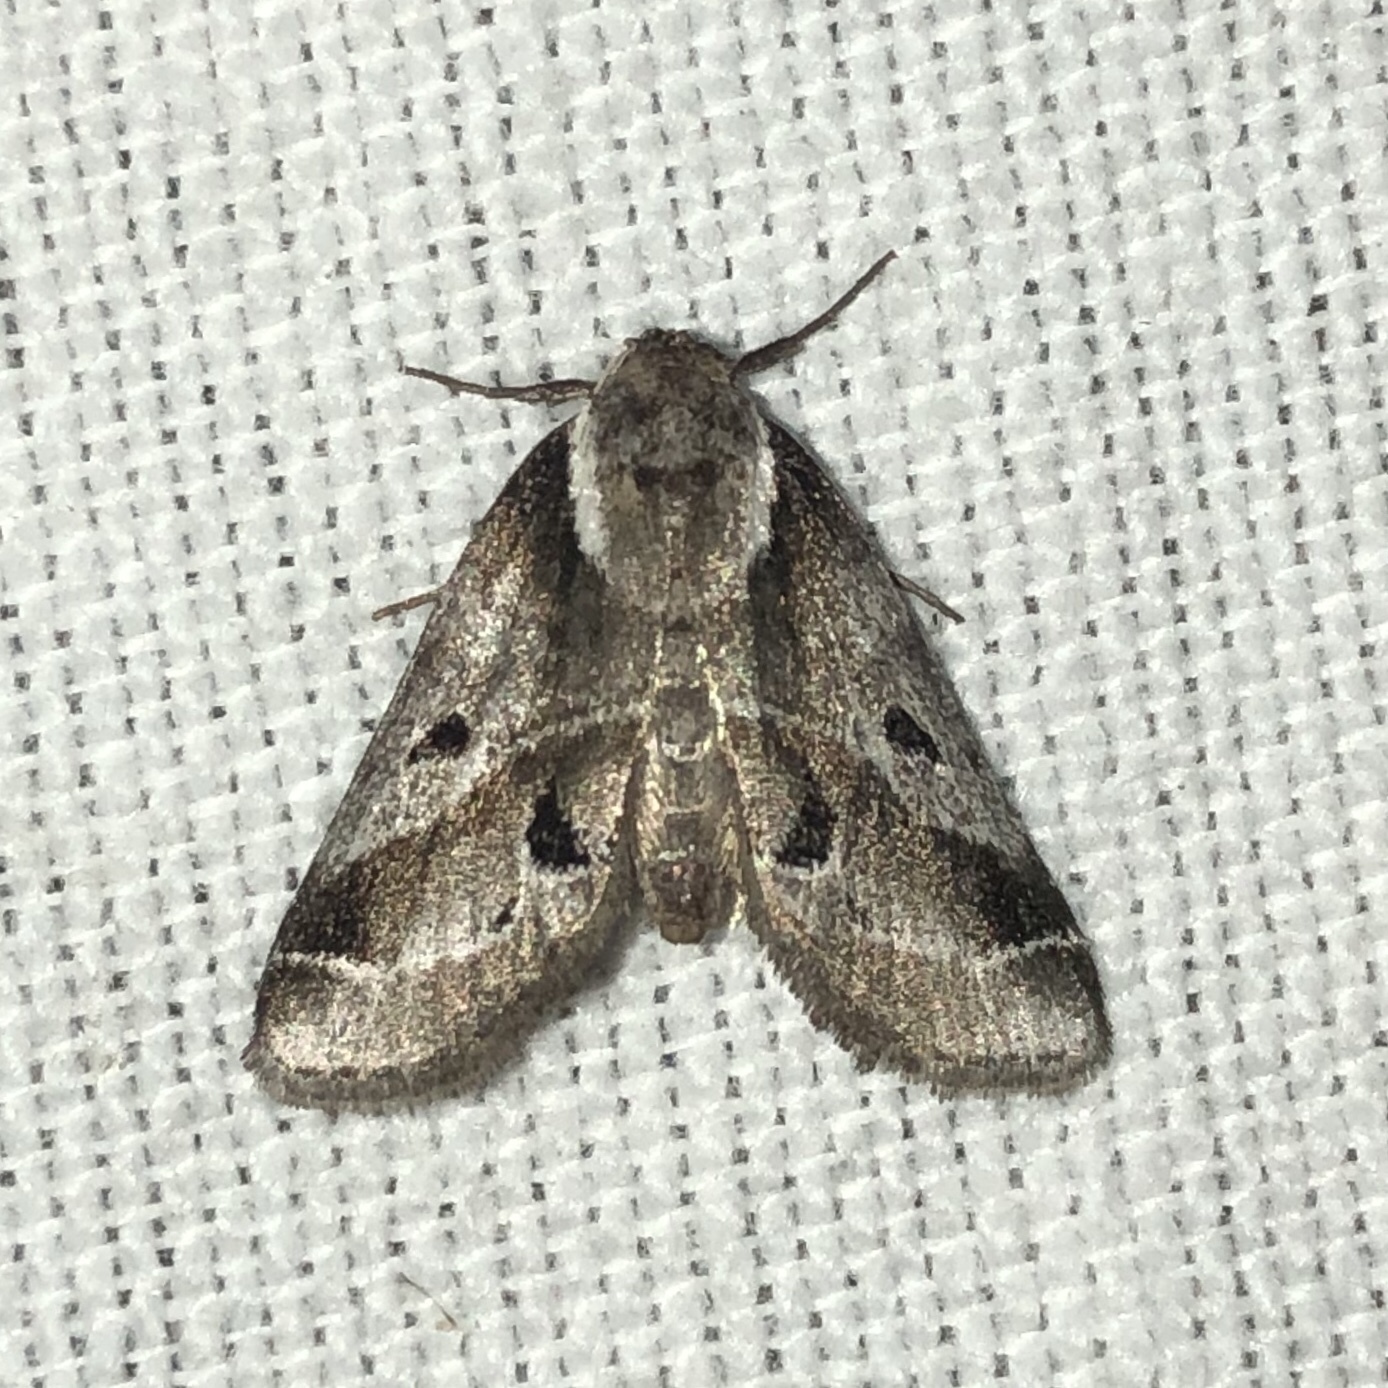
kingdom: Animalia
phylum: Arthropoda
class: Insecta
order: Lepidoptera
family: Nolidae
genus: Baileya
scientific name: Baileya doubledayi
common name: Doubleday's baileya moth
